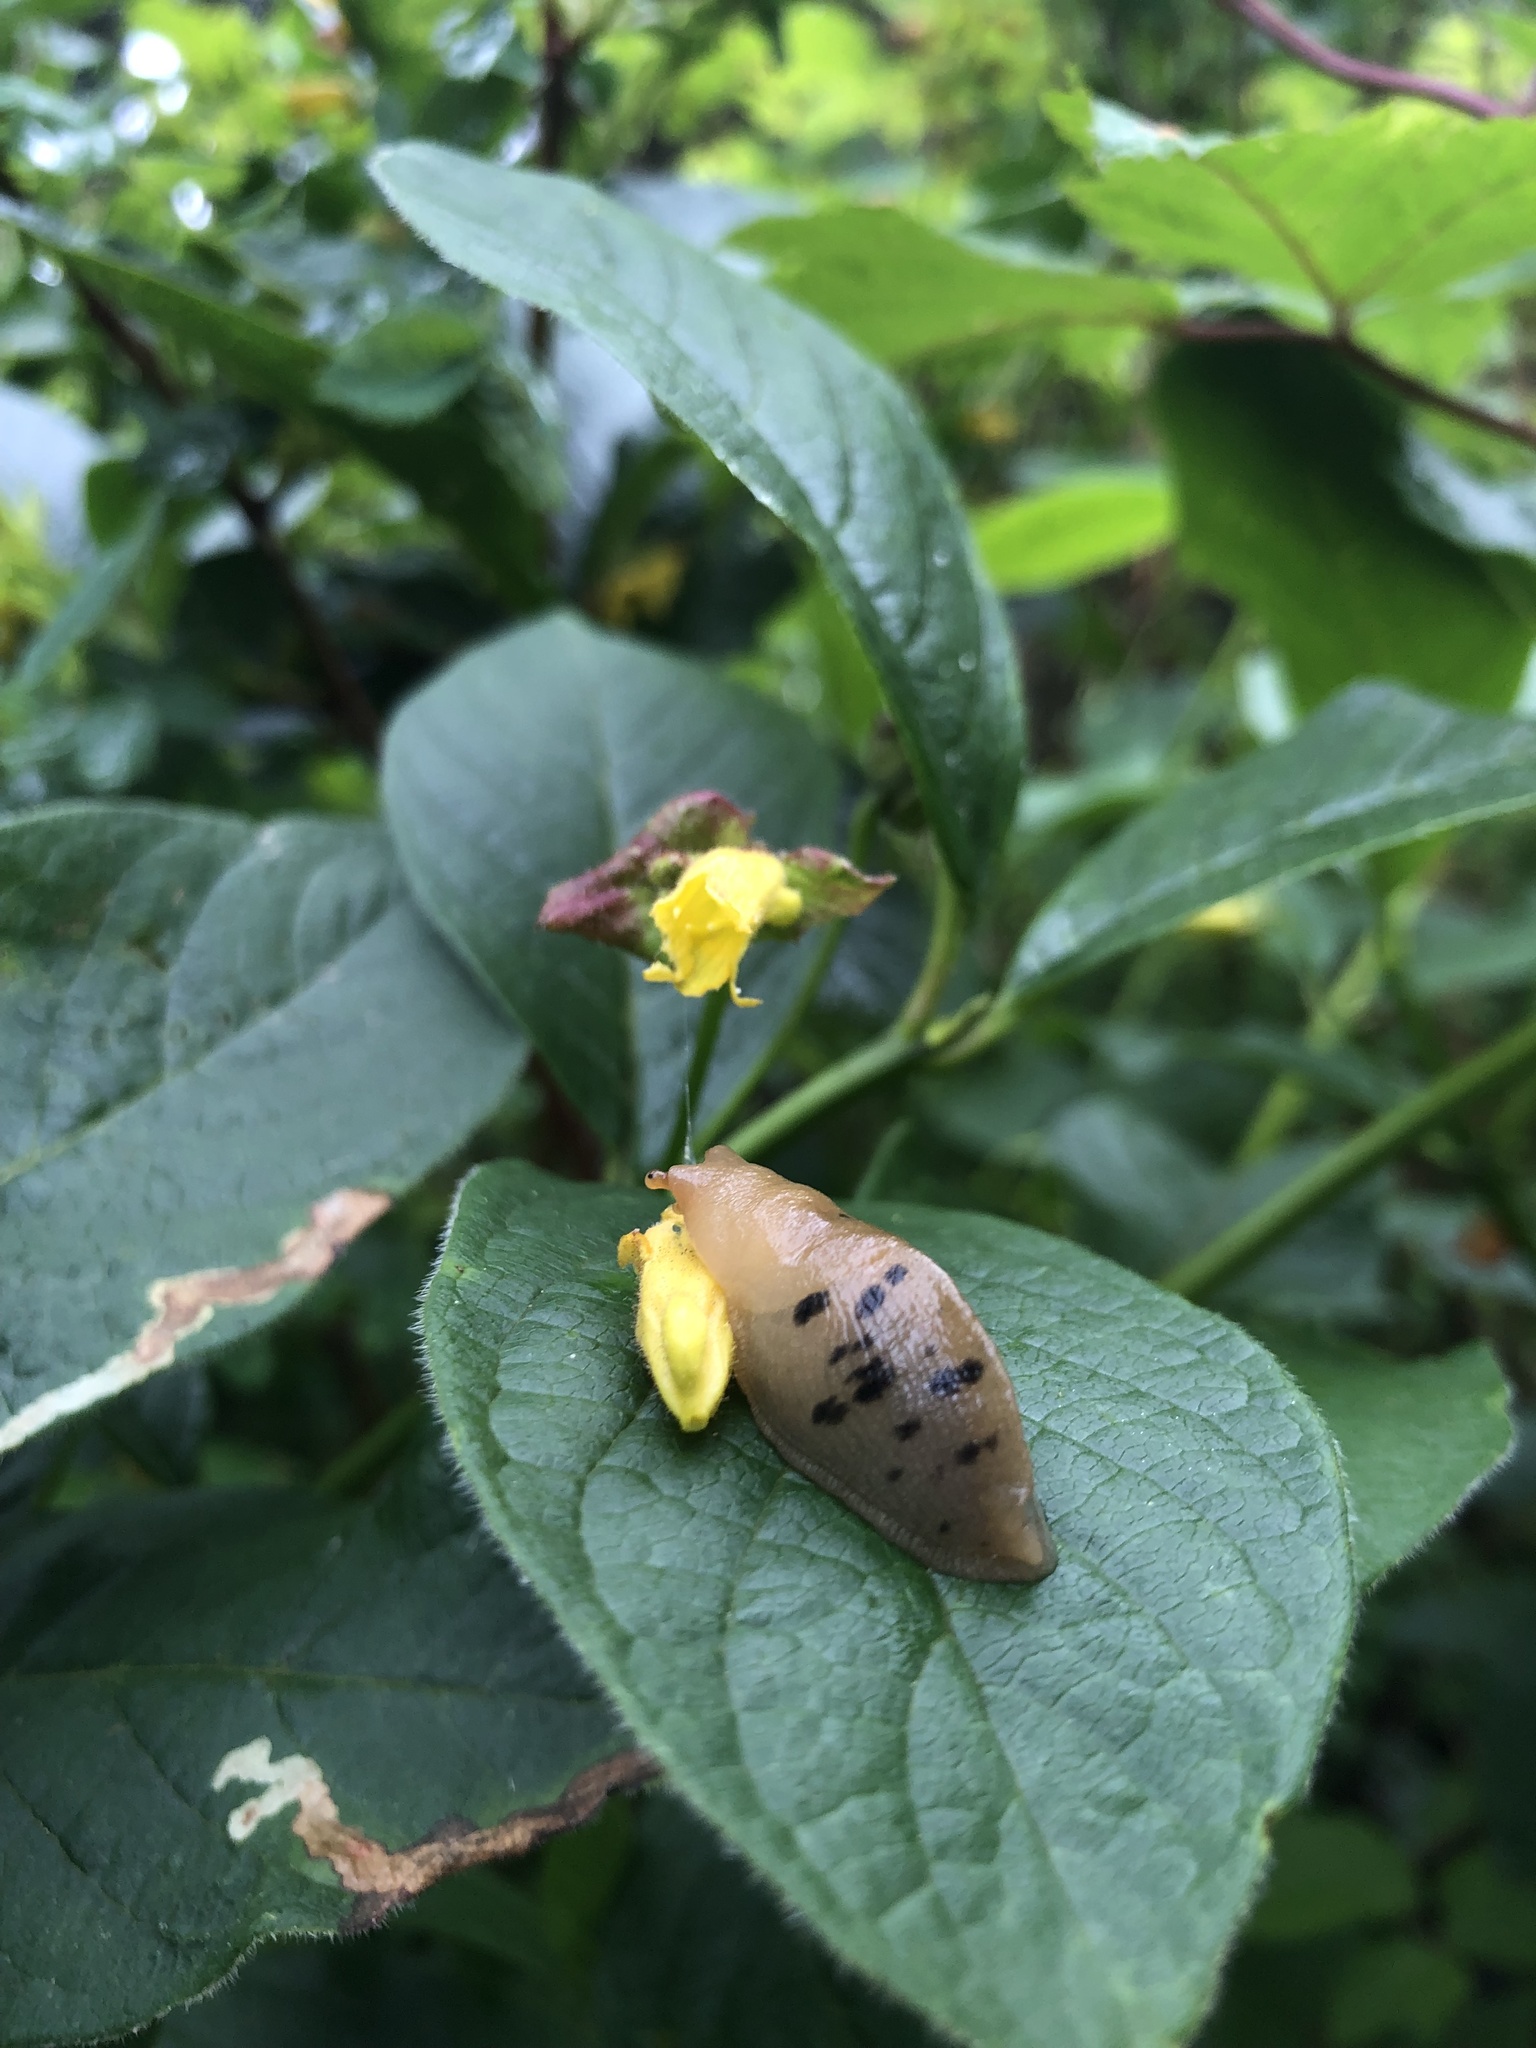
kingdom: Animalia
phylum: Mollusca
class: Gastropoda
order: Stylommatophora
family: Ariolimacidae
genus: Ariolimax
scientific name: Ariolimax columbianus
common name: Pacific banana slug
